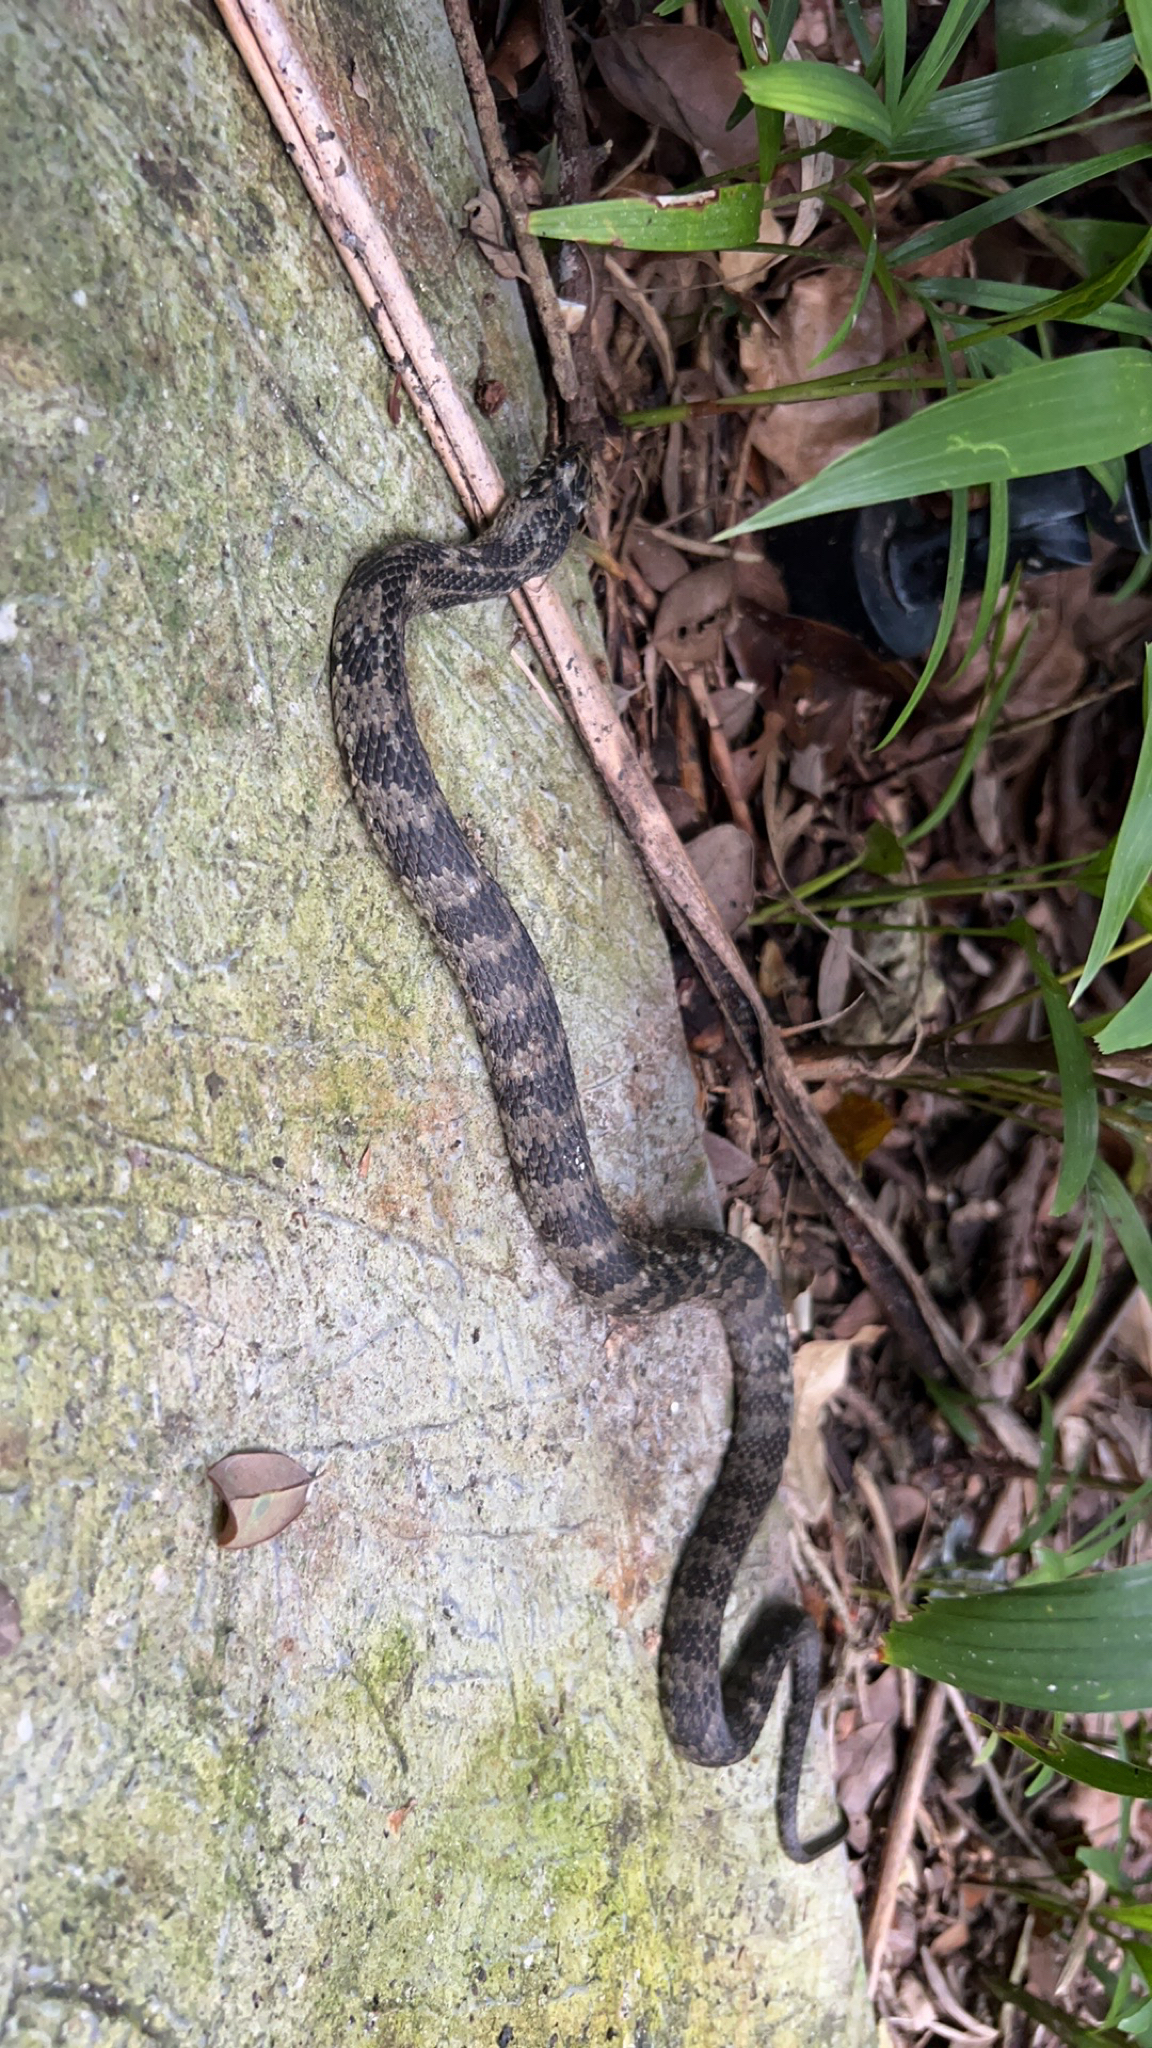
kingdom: Animalia
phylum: Chordata
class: Squamata
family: Colubridae
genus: Nerodia
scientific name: Nerodia clarkii
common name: Atlantic saltmarsh snake
